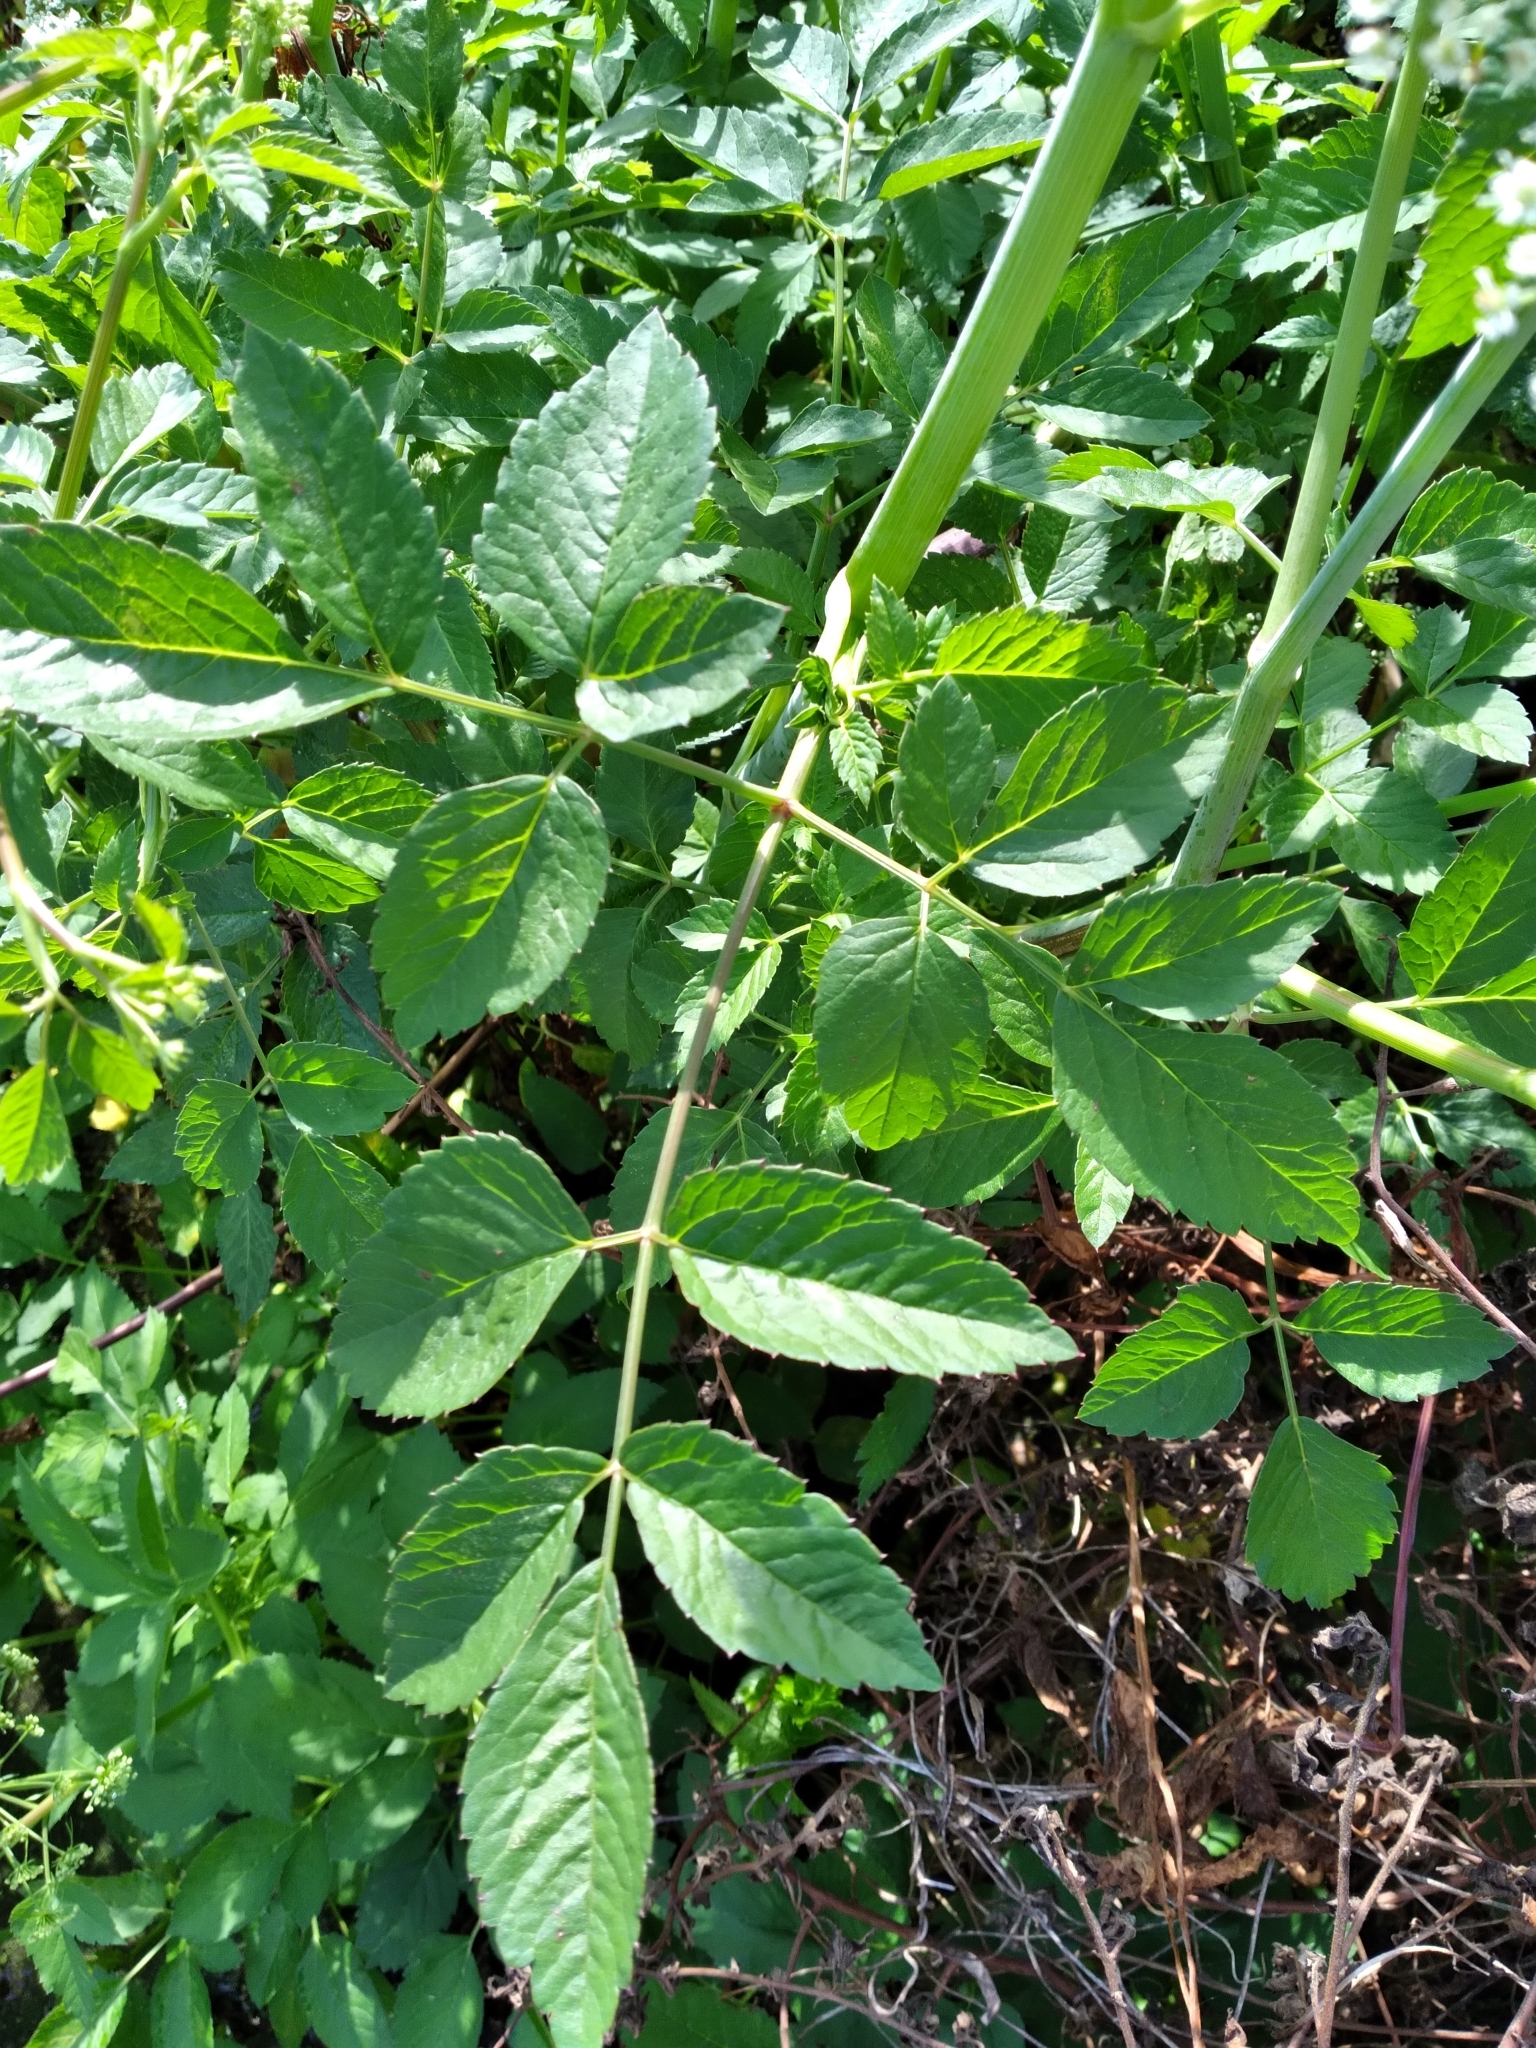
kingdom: Plantae
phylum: Tracheophyta
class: Magnoliopsida
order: Apiales
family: Apiaceae
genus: Cicuta
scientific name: Cicuta douglasii
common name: Western water-hemlock
